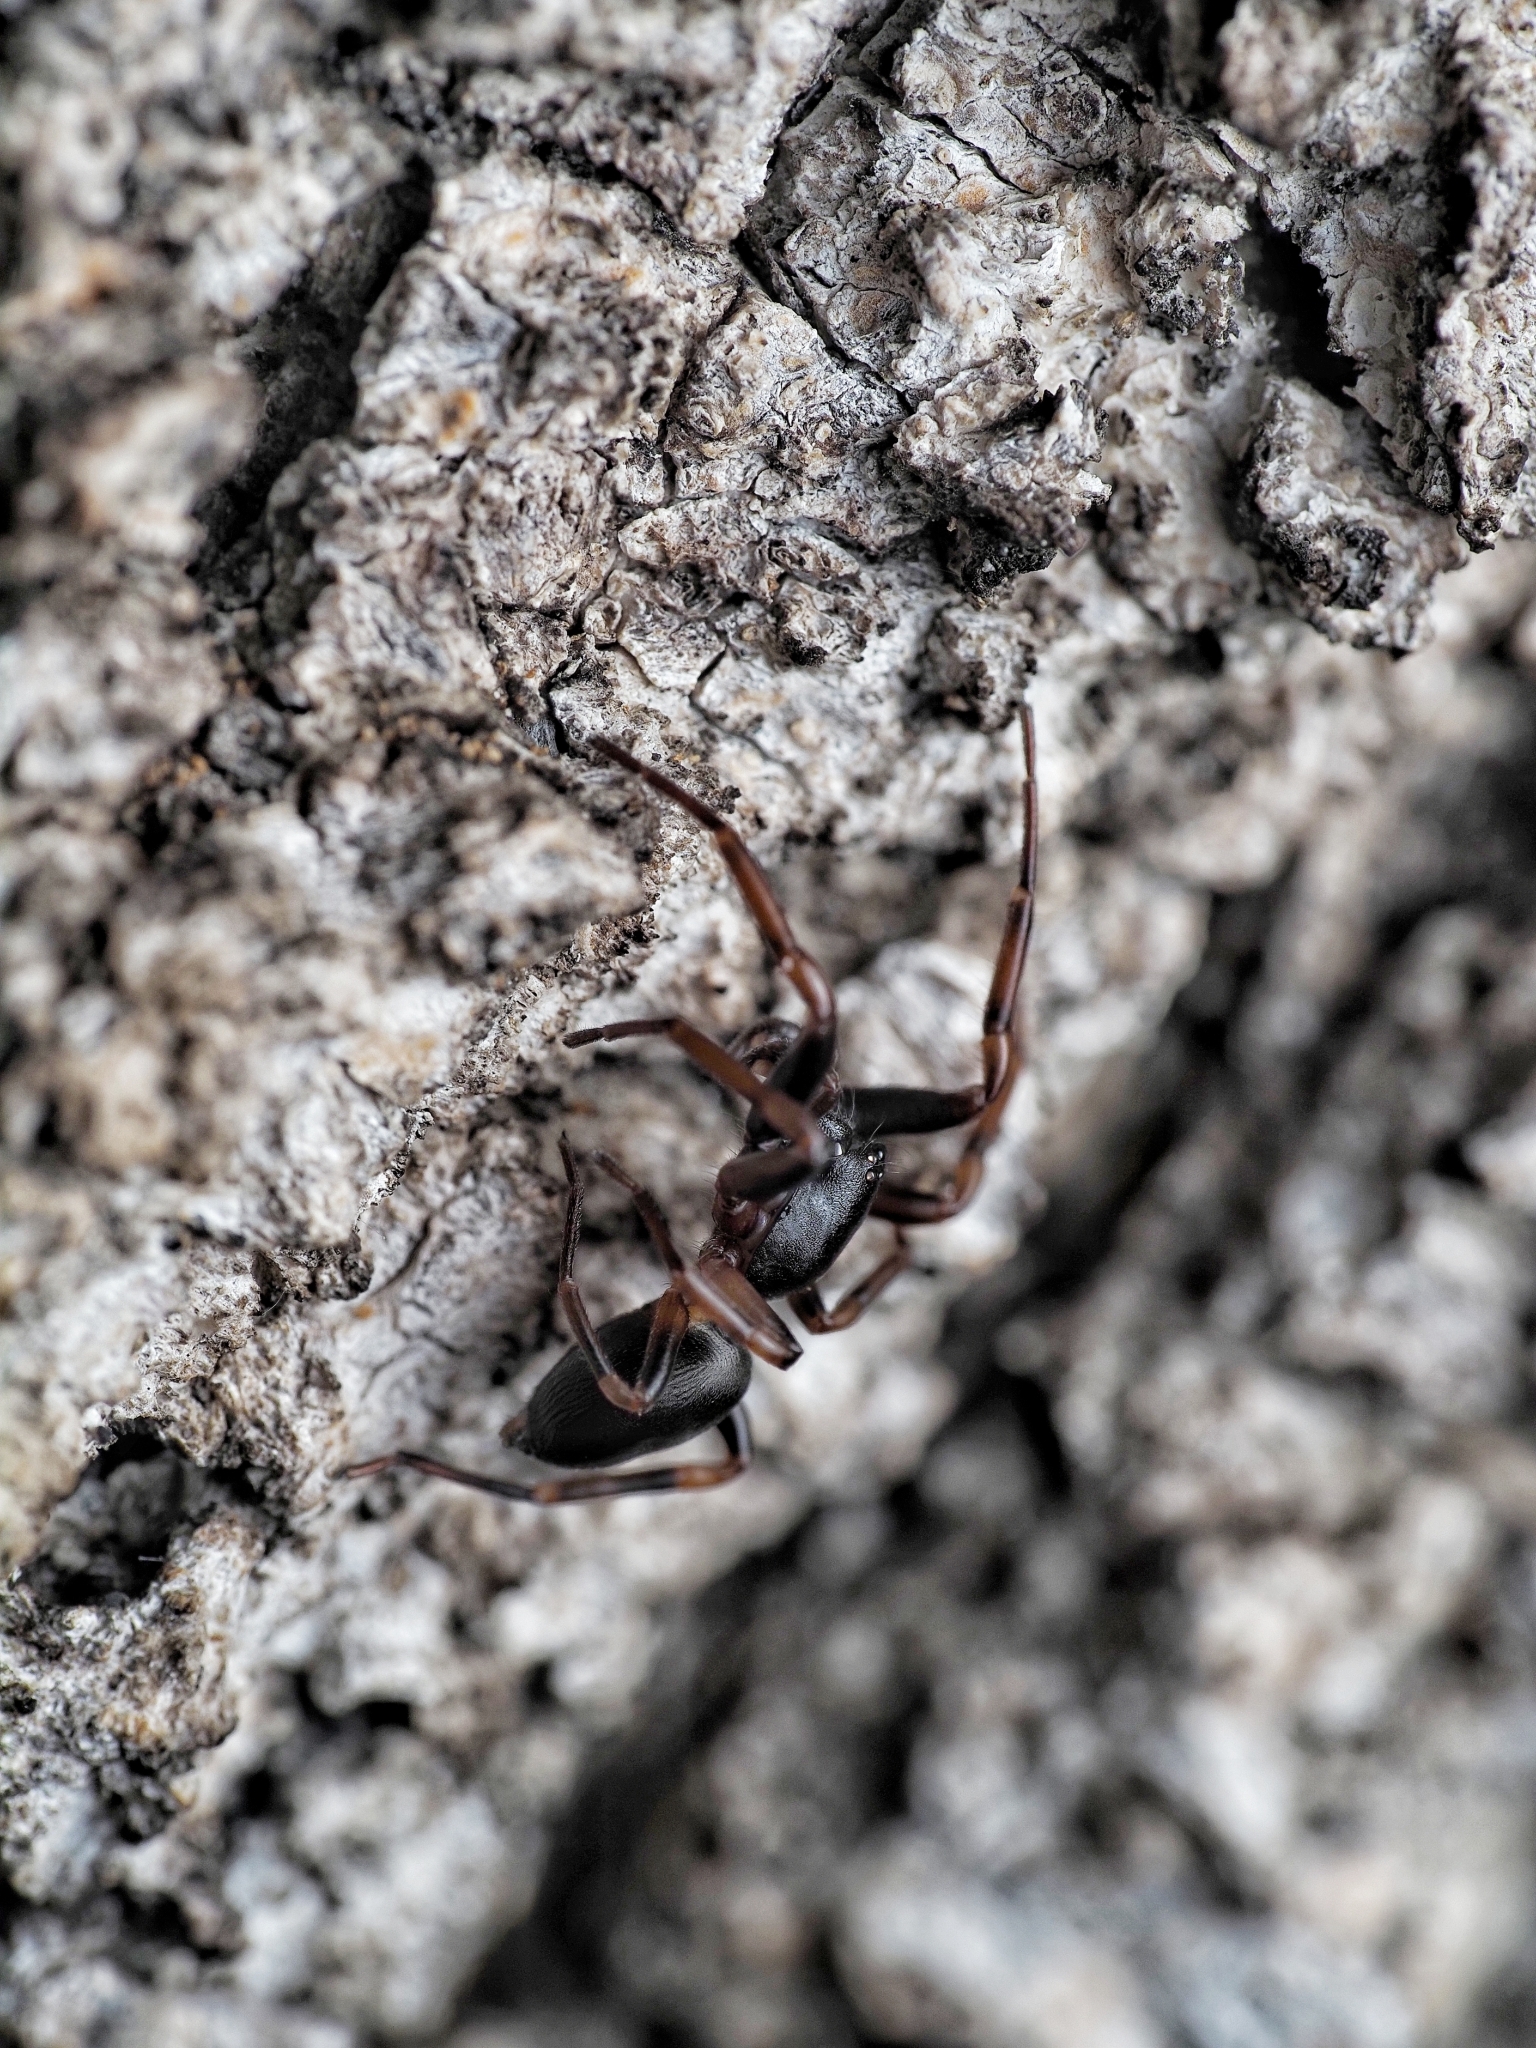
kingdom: Animalia
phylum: Arthropoda
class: Arachnida
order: Araneae
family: Trachelidae
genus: Cetonana
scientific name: Cetonana laticeps
